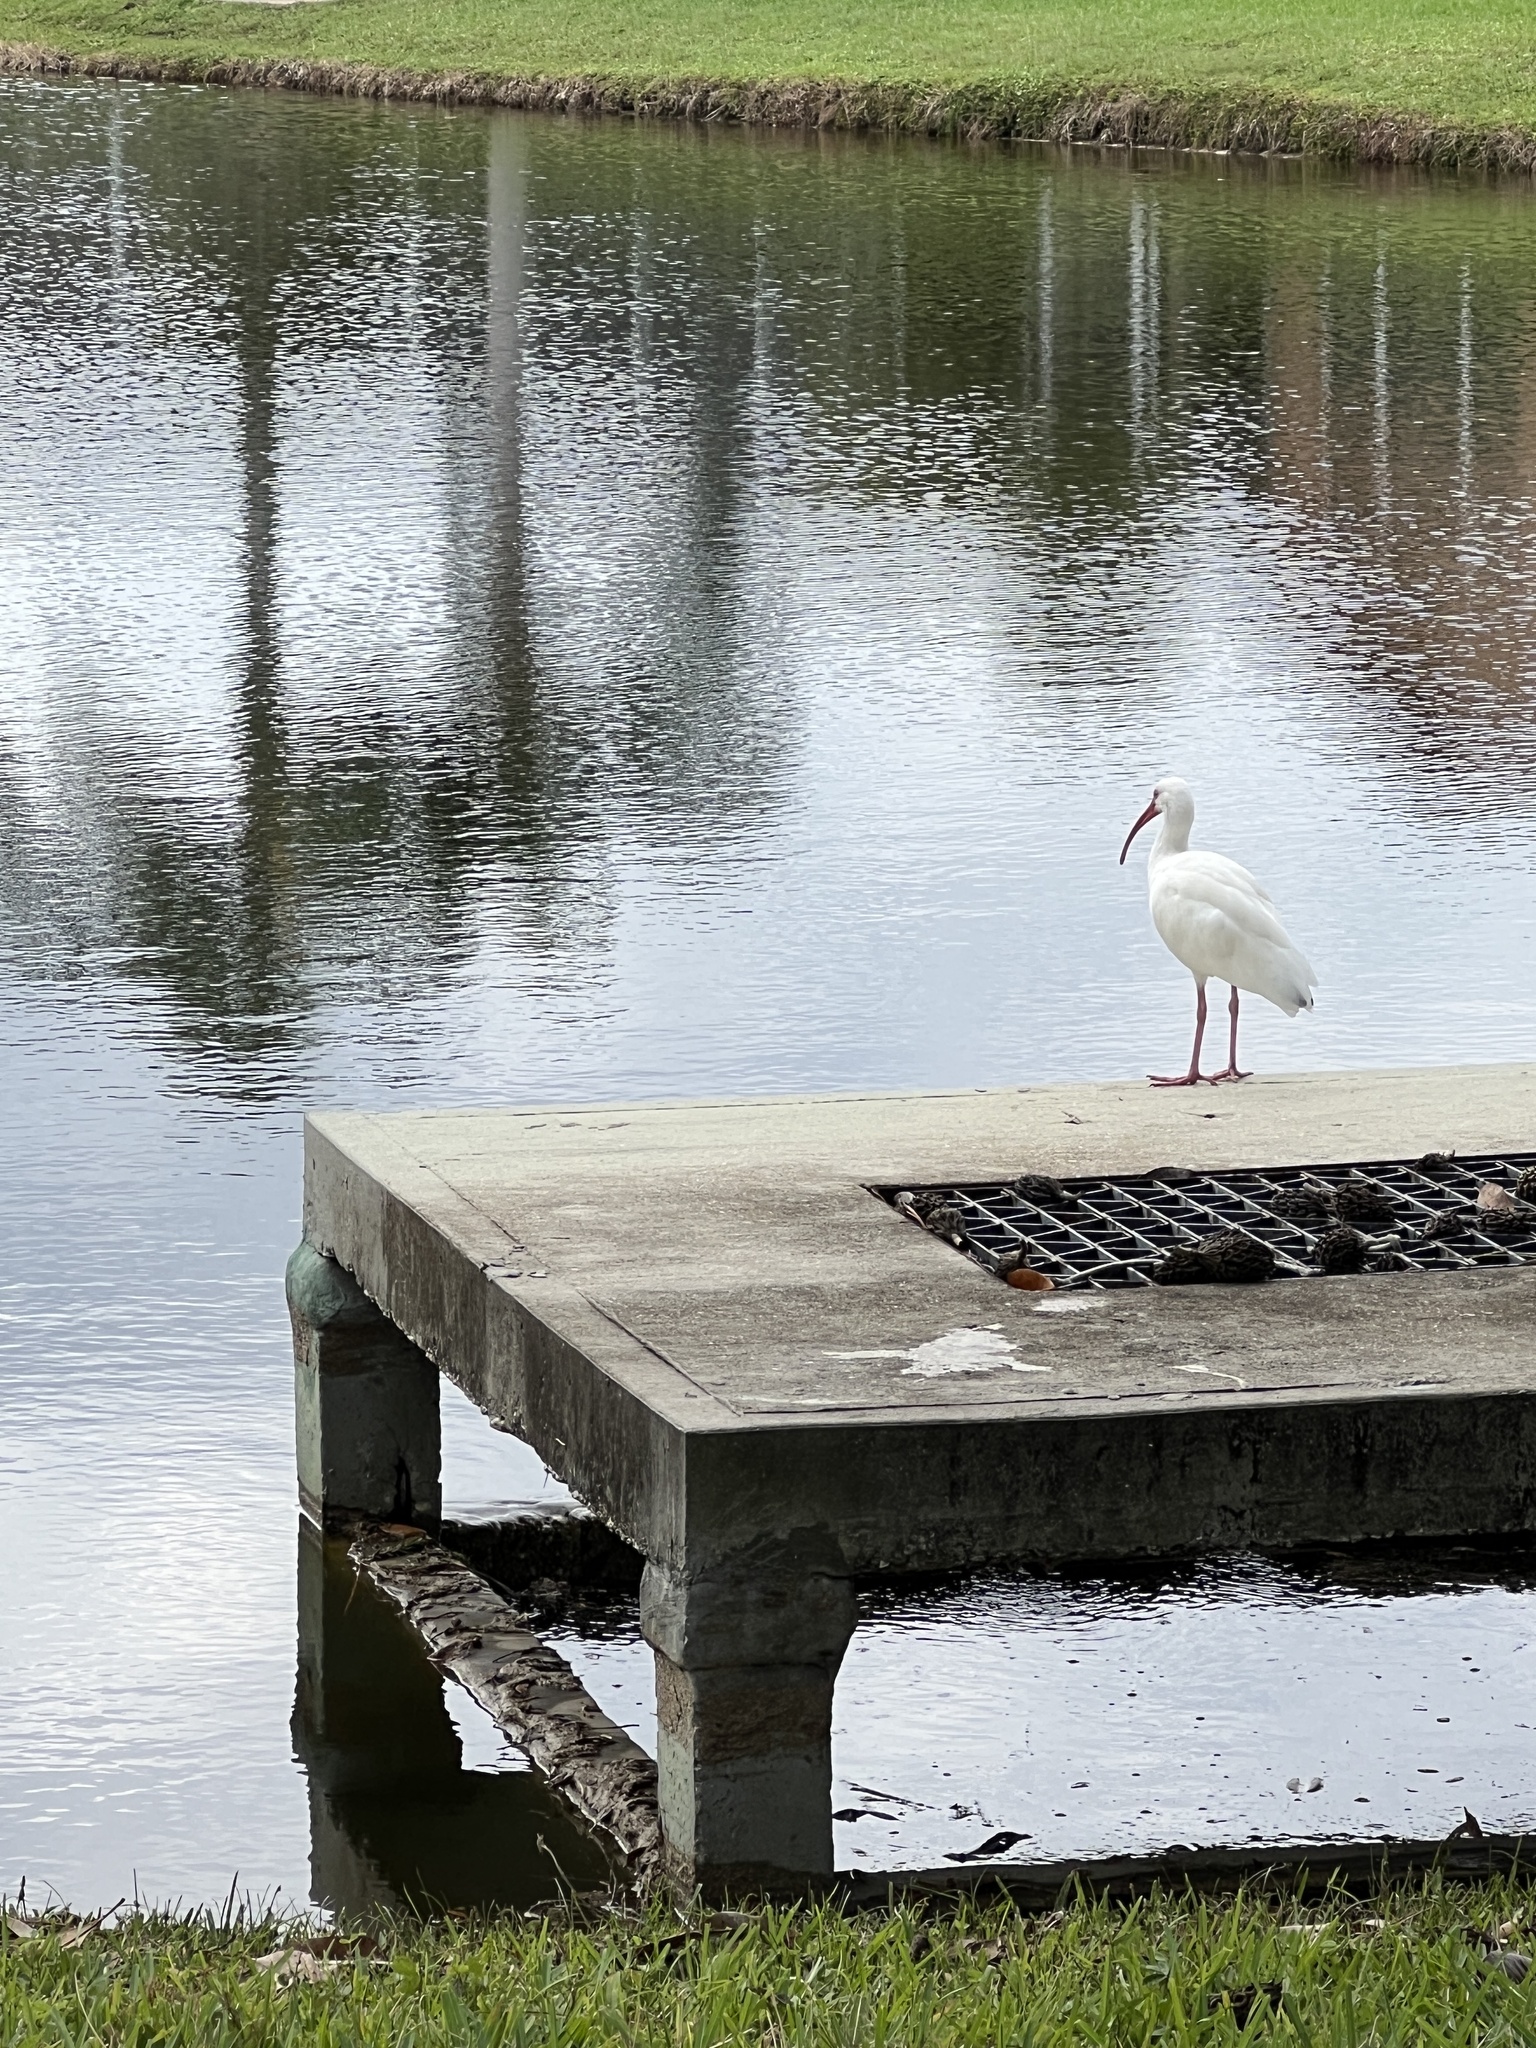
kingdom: Animalia
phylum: Chordata
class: Aves
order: Pelecaniformes
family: Threskiornithidae
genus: Eudocimus
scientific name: Eudocimus albus
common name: White ibis
